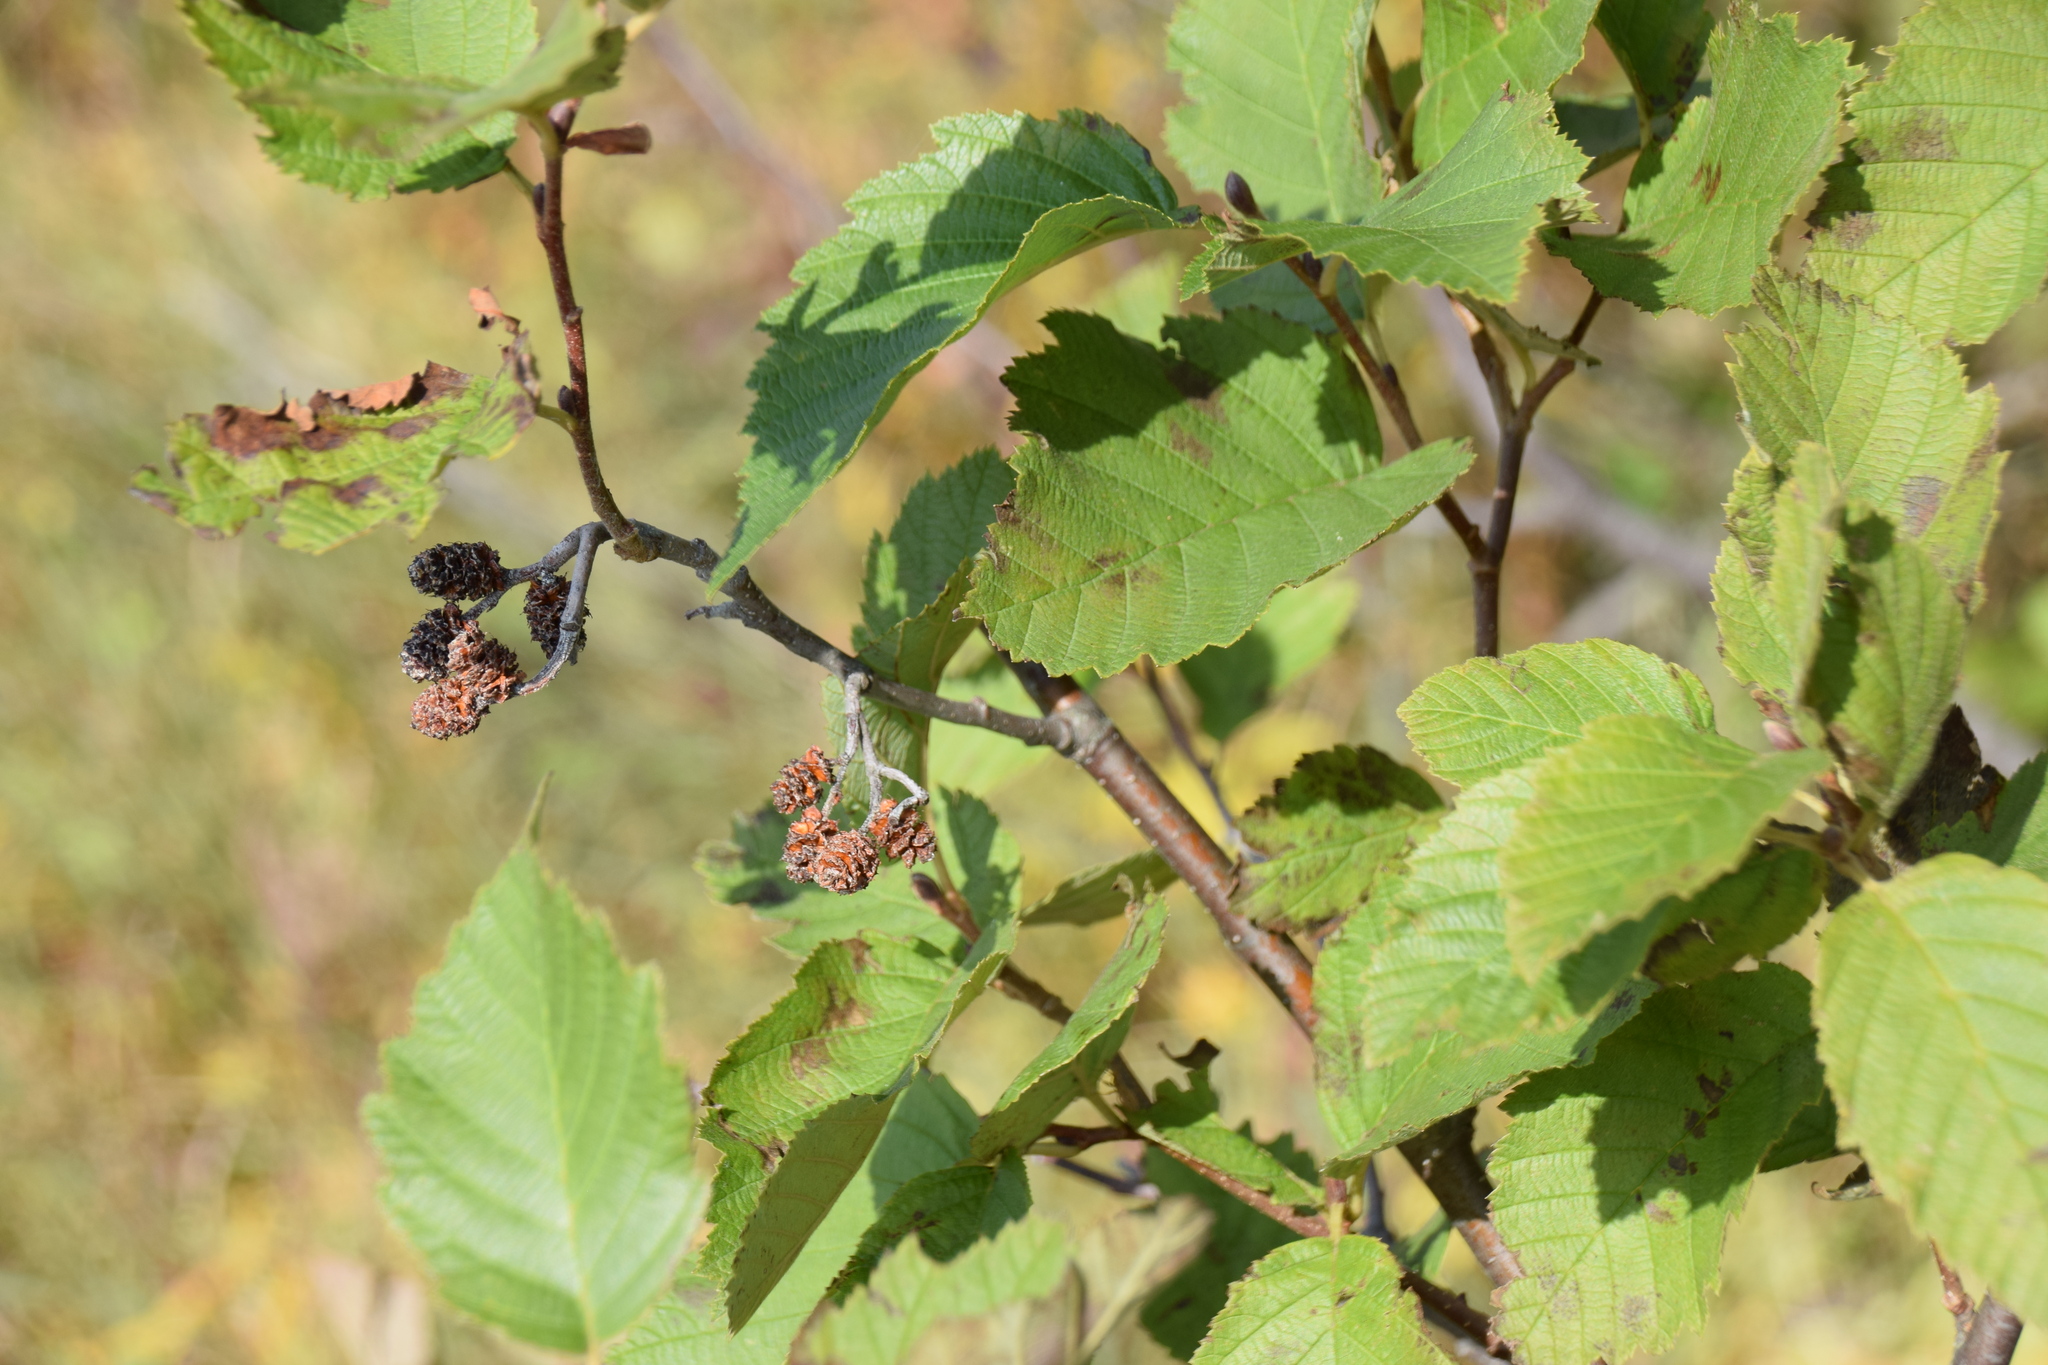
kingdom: Plantae
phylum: Tracheophyta
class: Magnoliopsida
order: Fagales
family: Betulaceae
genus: Alnus
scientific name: Alnus incana
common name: Grey alder
